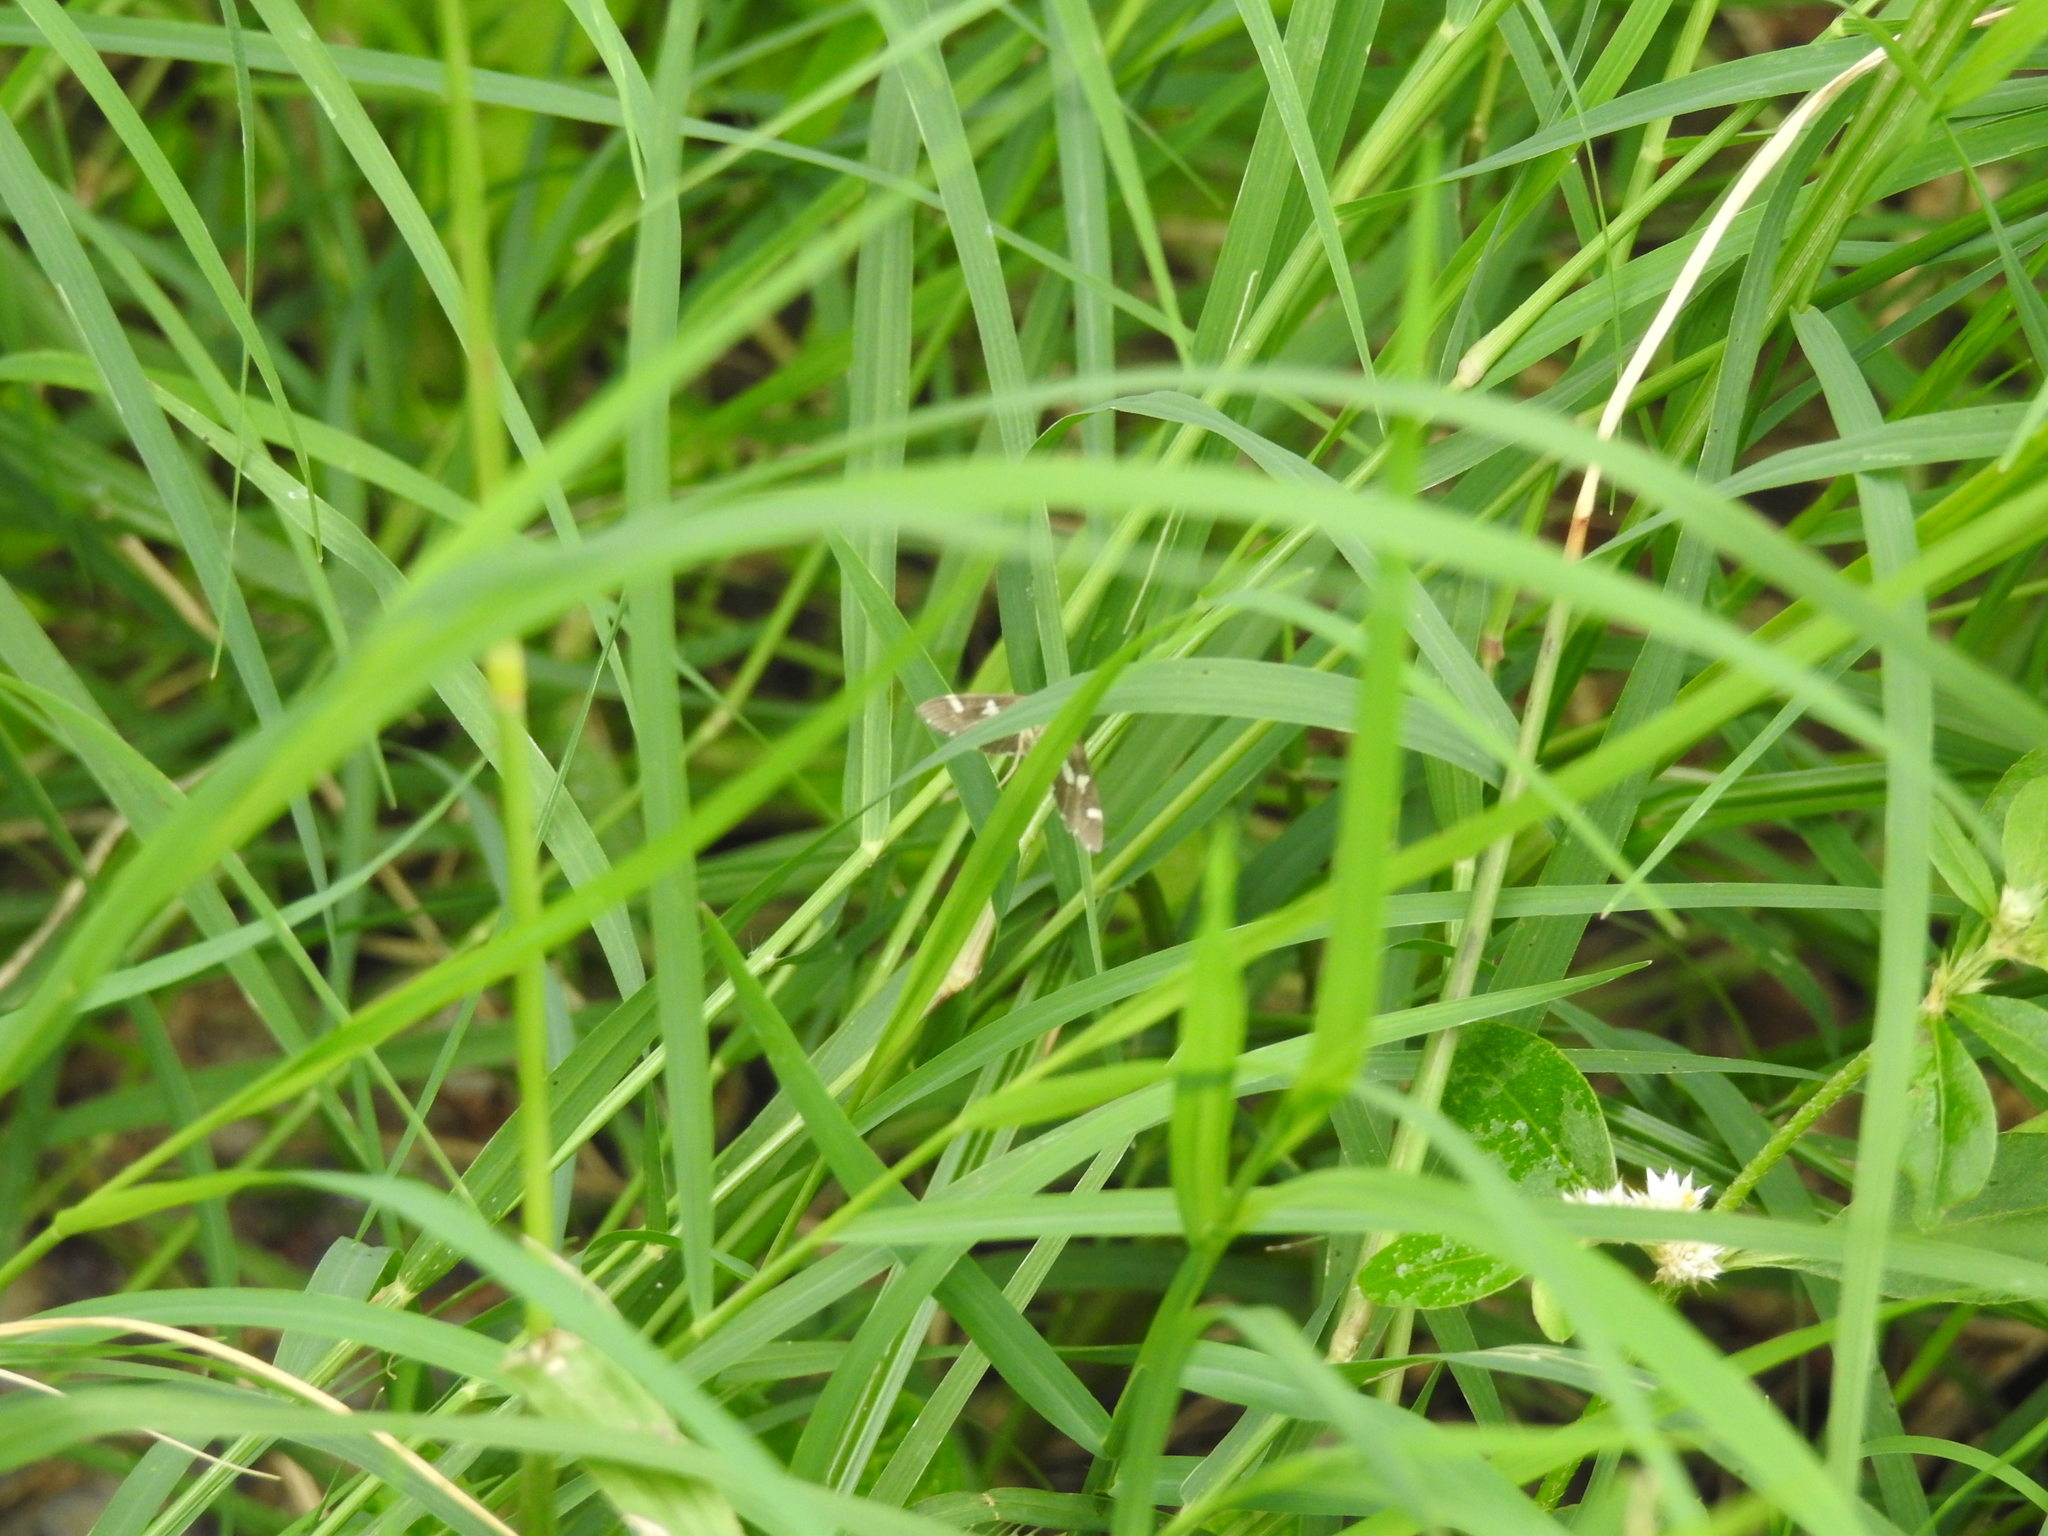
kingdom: Animalia
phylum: Arthropoda
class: Insecta
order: Lepidoptera
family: Crambidae
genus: Spoladea
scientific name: Spoladea recurvalis
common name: Beet webworm moth
